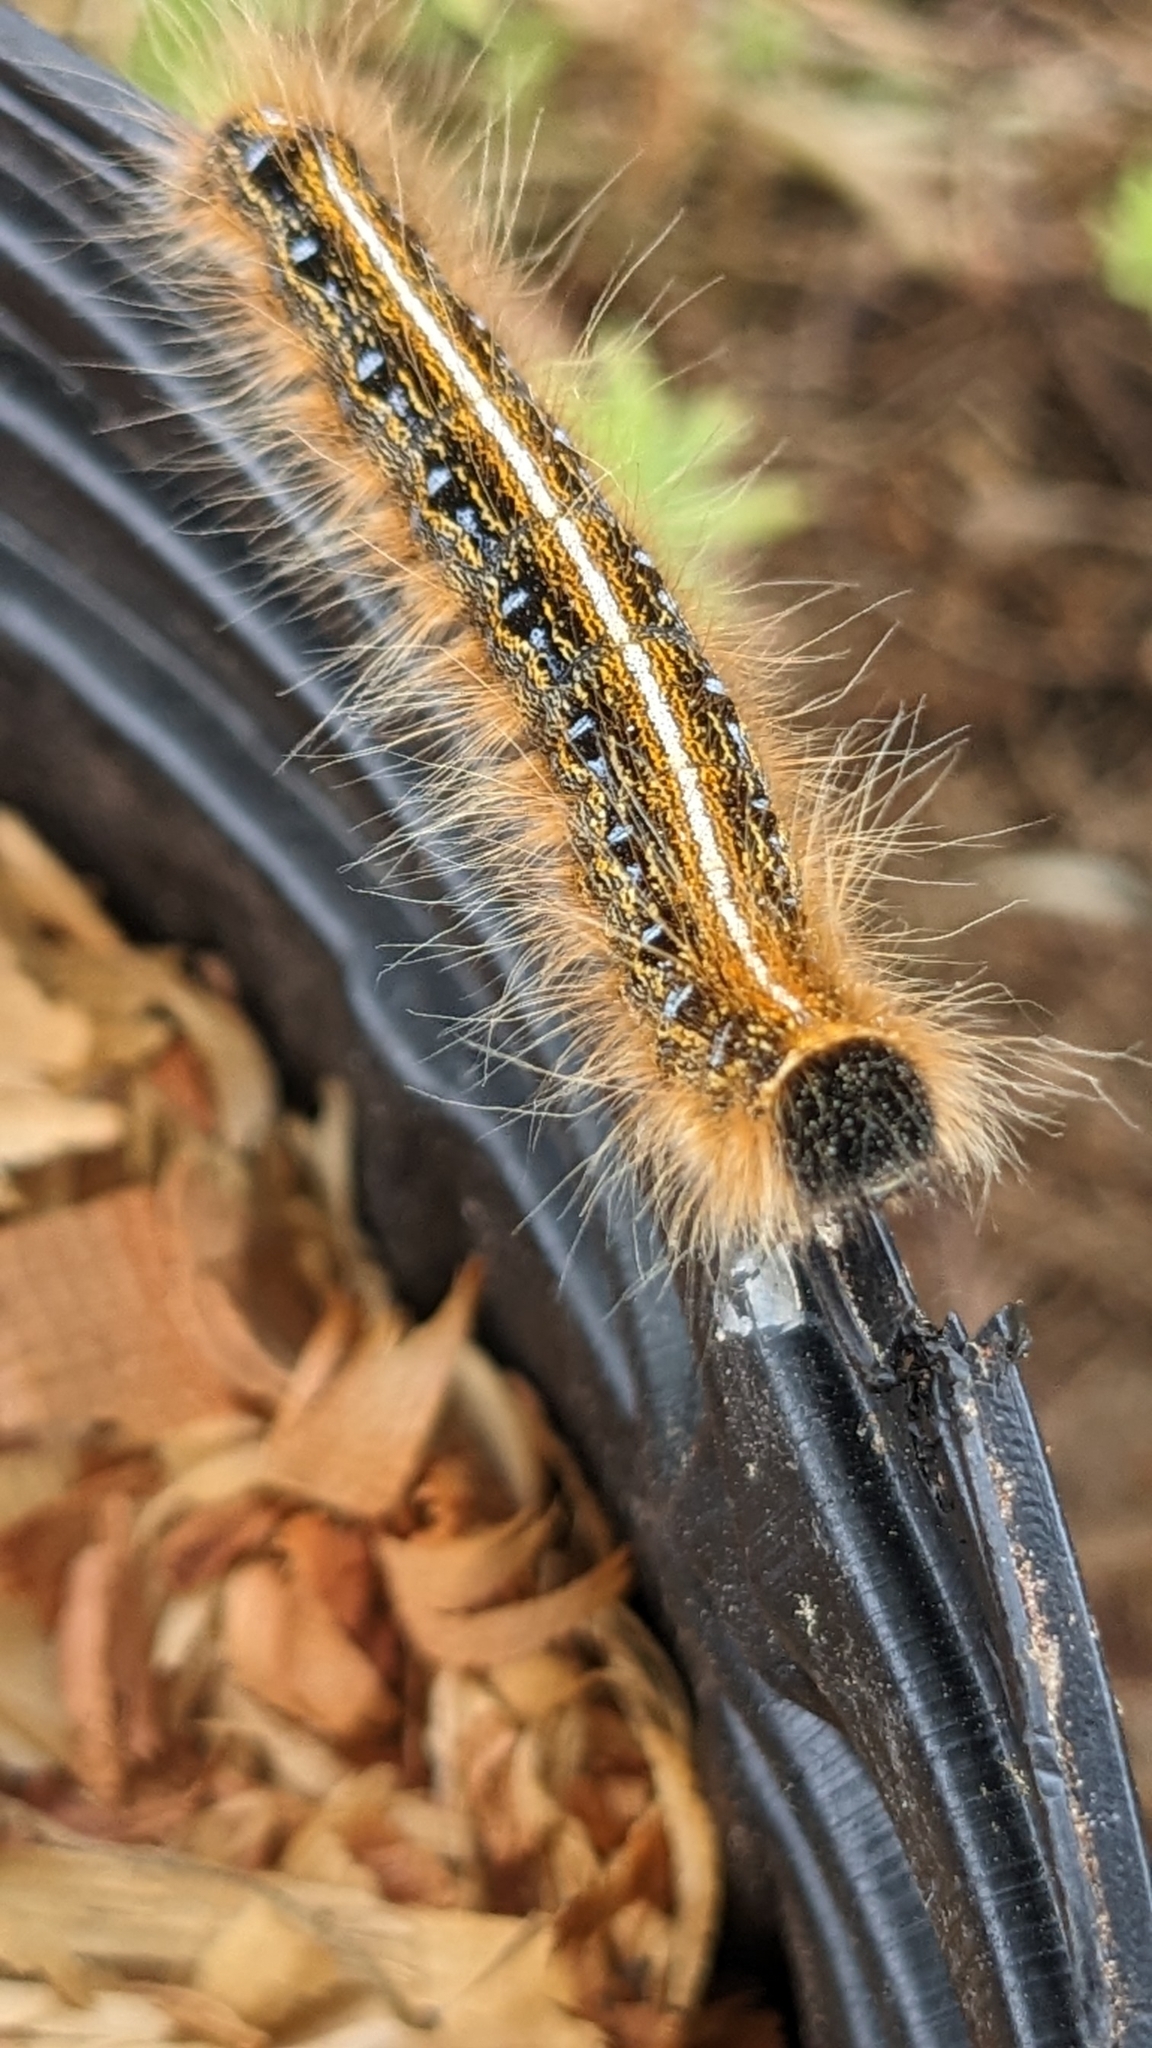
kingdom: Animalia
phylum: Arthropoda
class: Insecta
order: Lepidoptera
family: Lasiocampidae
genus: Malacosoma
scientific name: Malacosoma americana
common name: Eastern tent caterpillar moth
